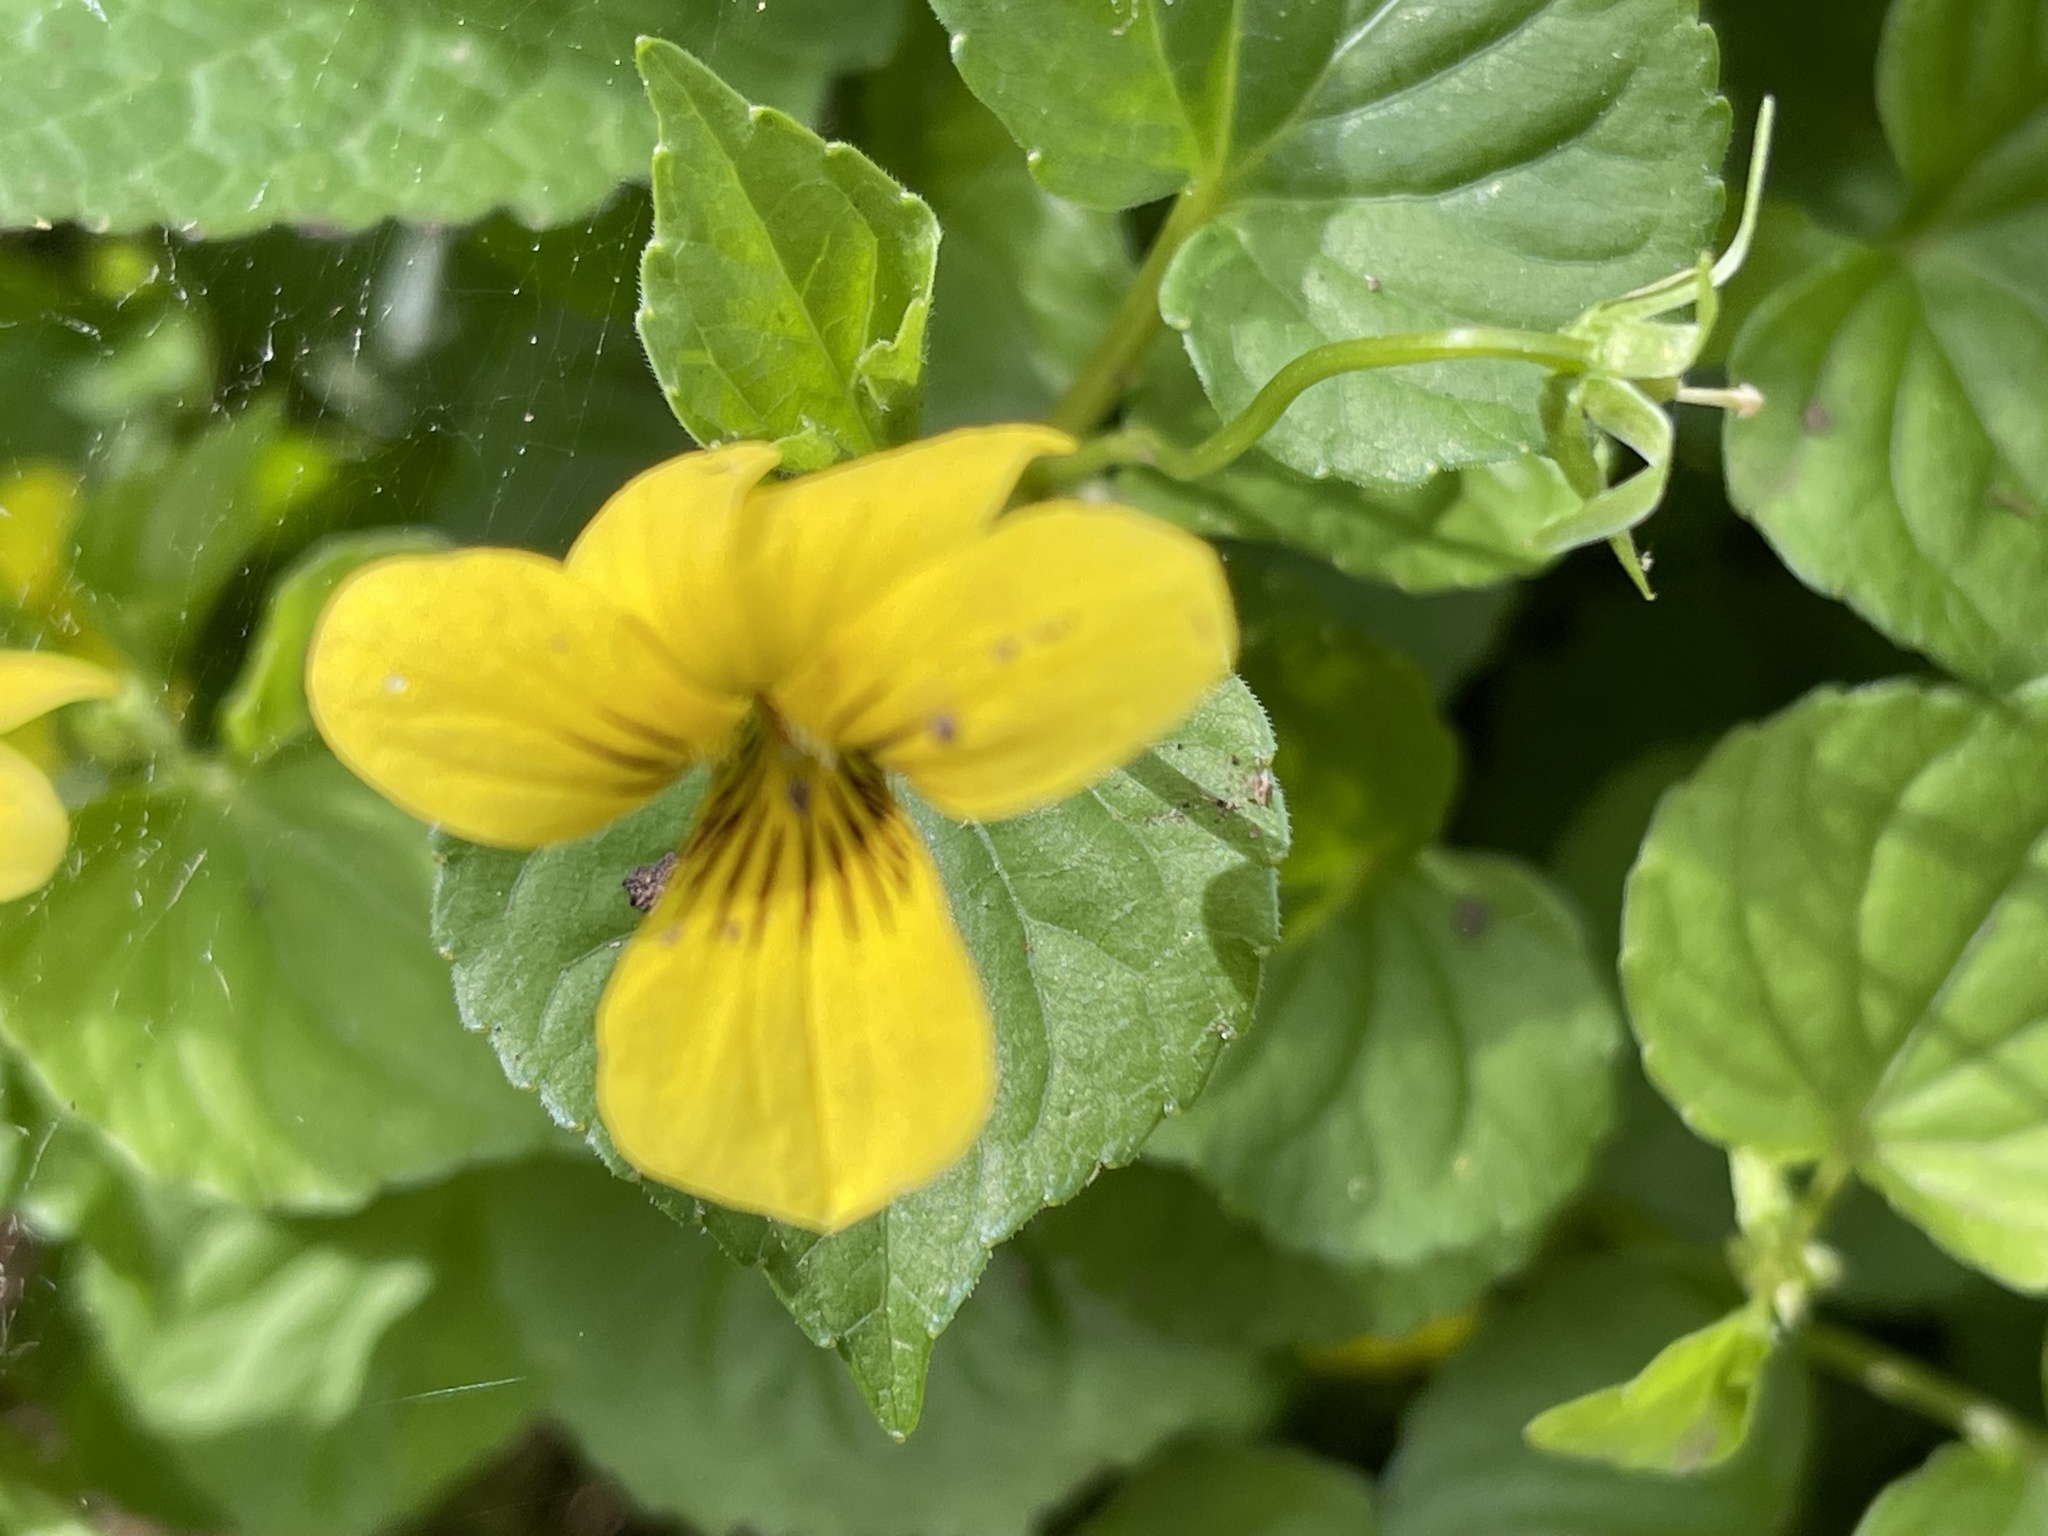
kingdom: Plantae
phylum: Tracheophyta
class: Magnoliopsida
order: Malpighiales
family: Violaceae
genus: Viola
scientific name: Viola glabella
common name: Stream violet
